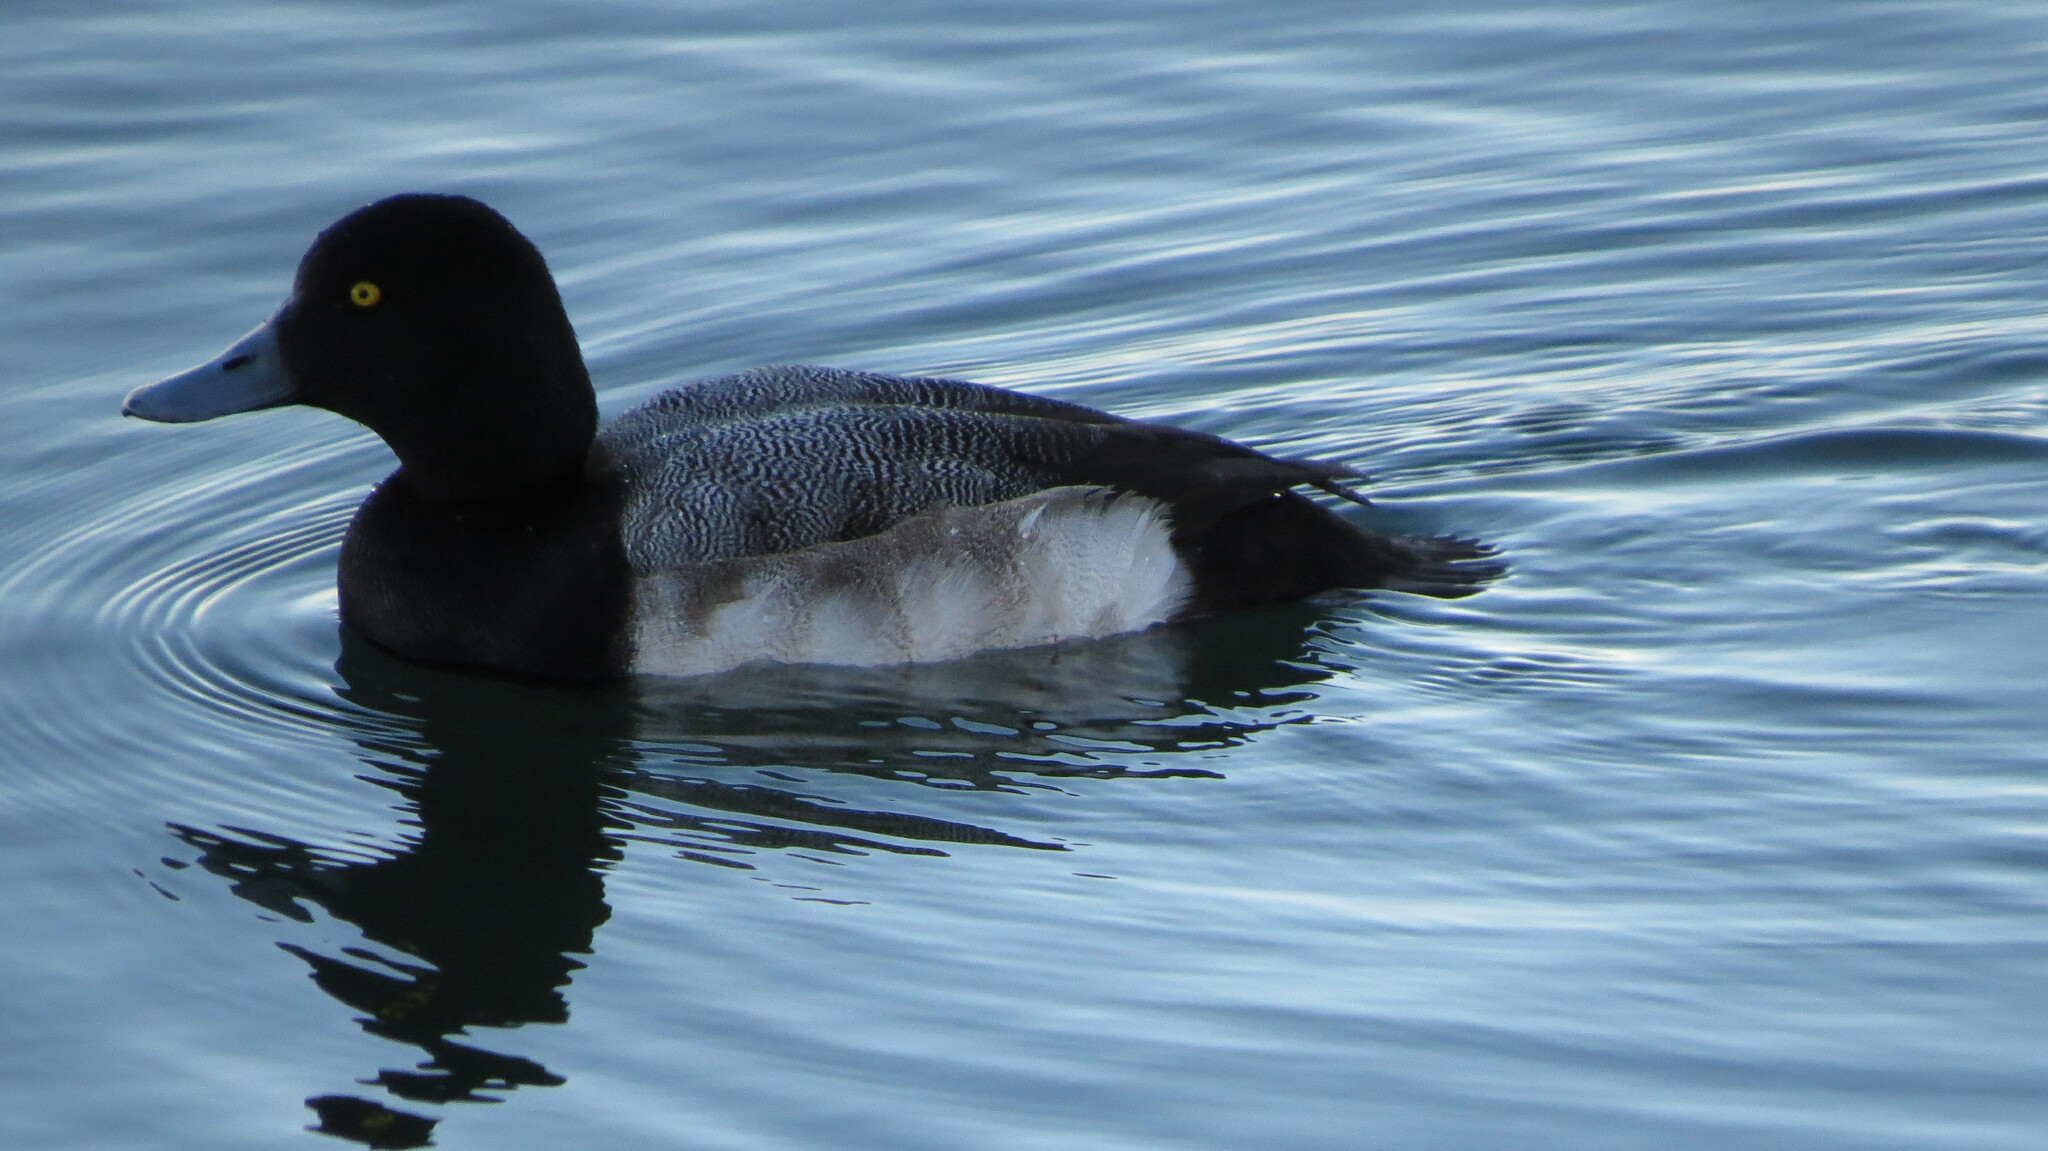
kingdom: Animalia
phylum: Chordata
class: Aves
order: Anseriformes
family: Anatidae
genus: Aythya
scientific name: Aythya marila
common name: Greater scaup
